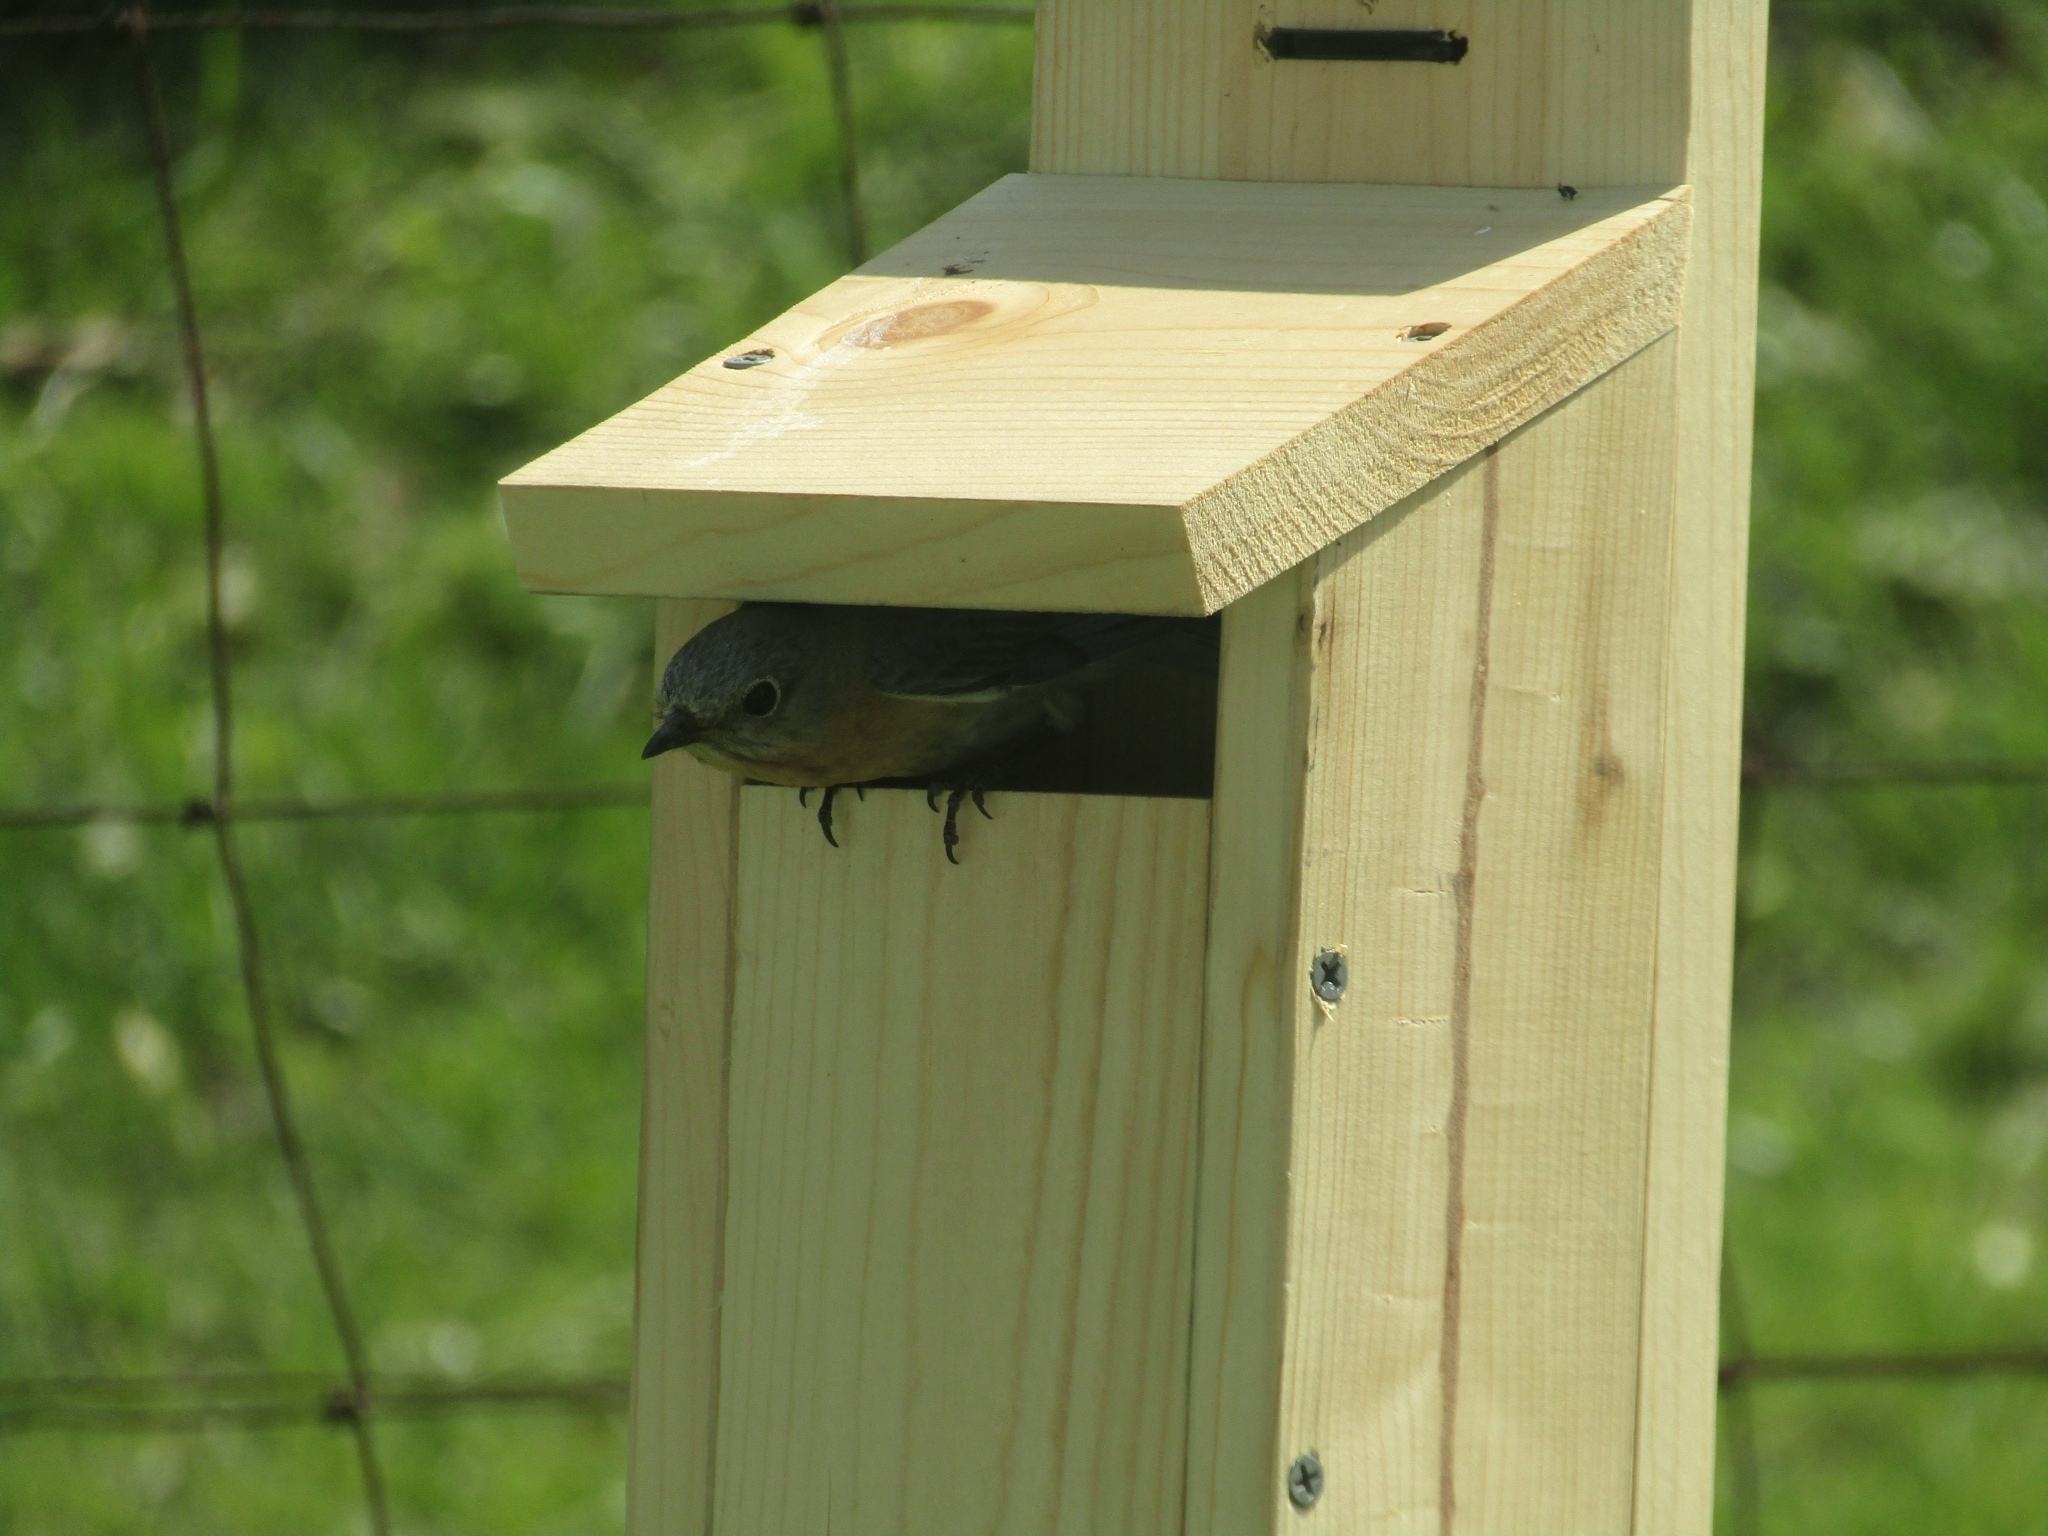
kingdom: Animalia
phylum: Chordata
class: Aves
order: Passeriformes
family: Turdidae
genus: Sialia
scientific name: Sialia sialis
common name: Eastern bluebird
